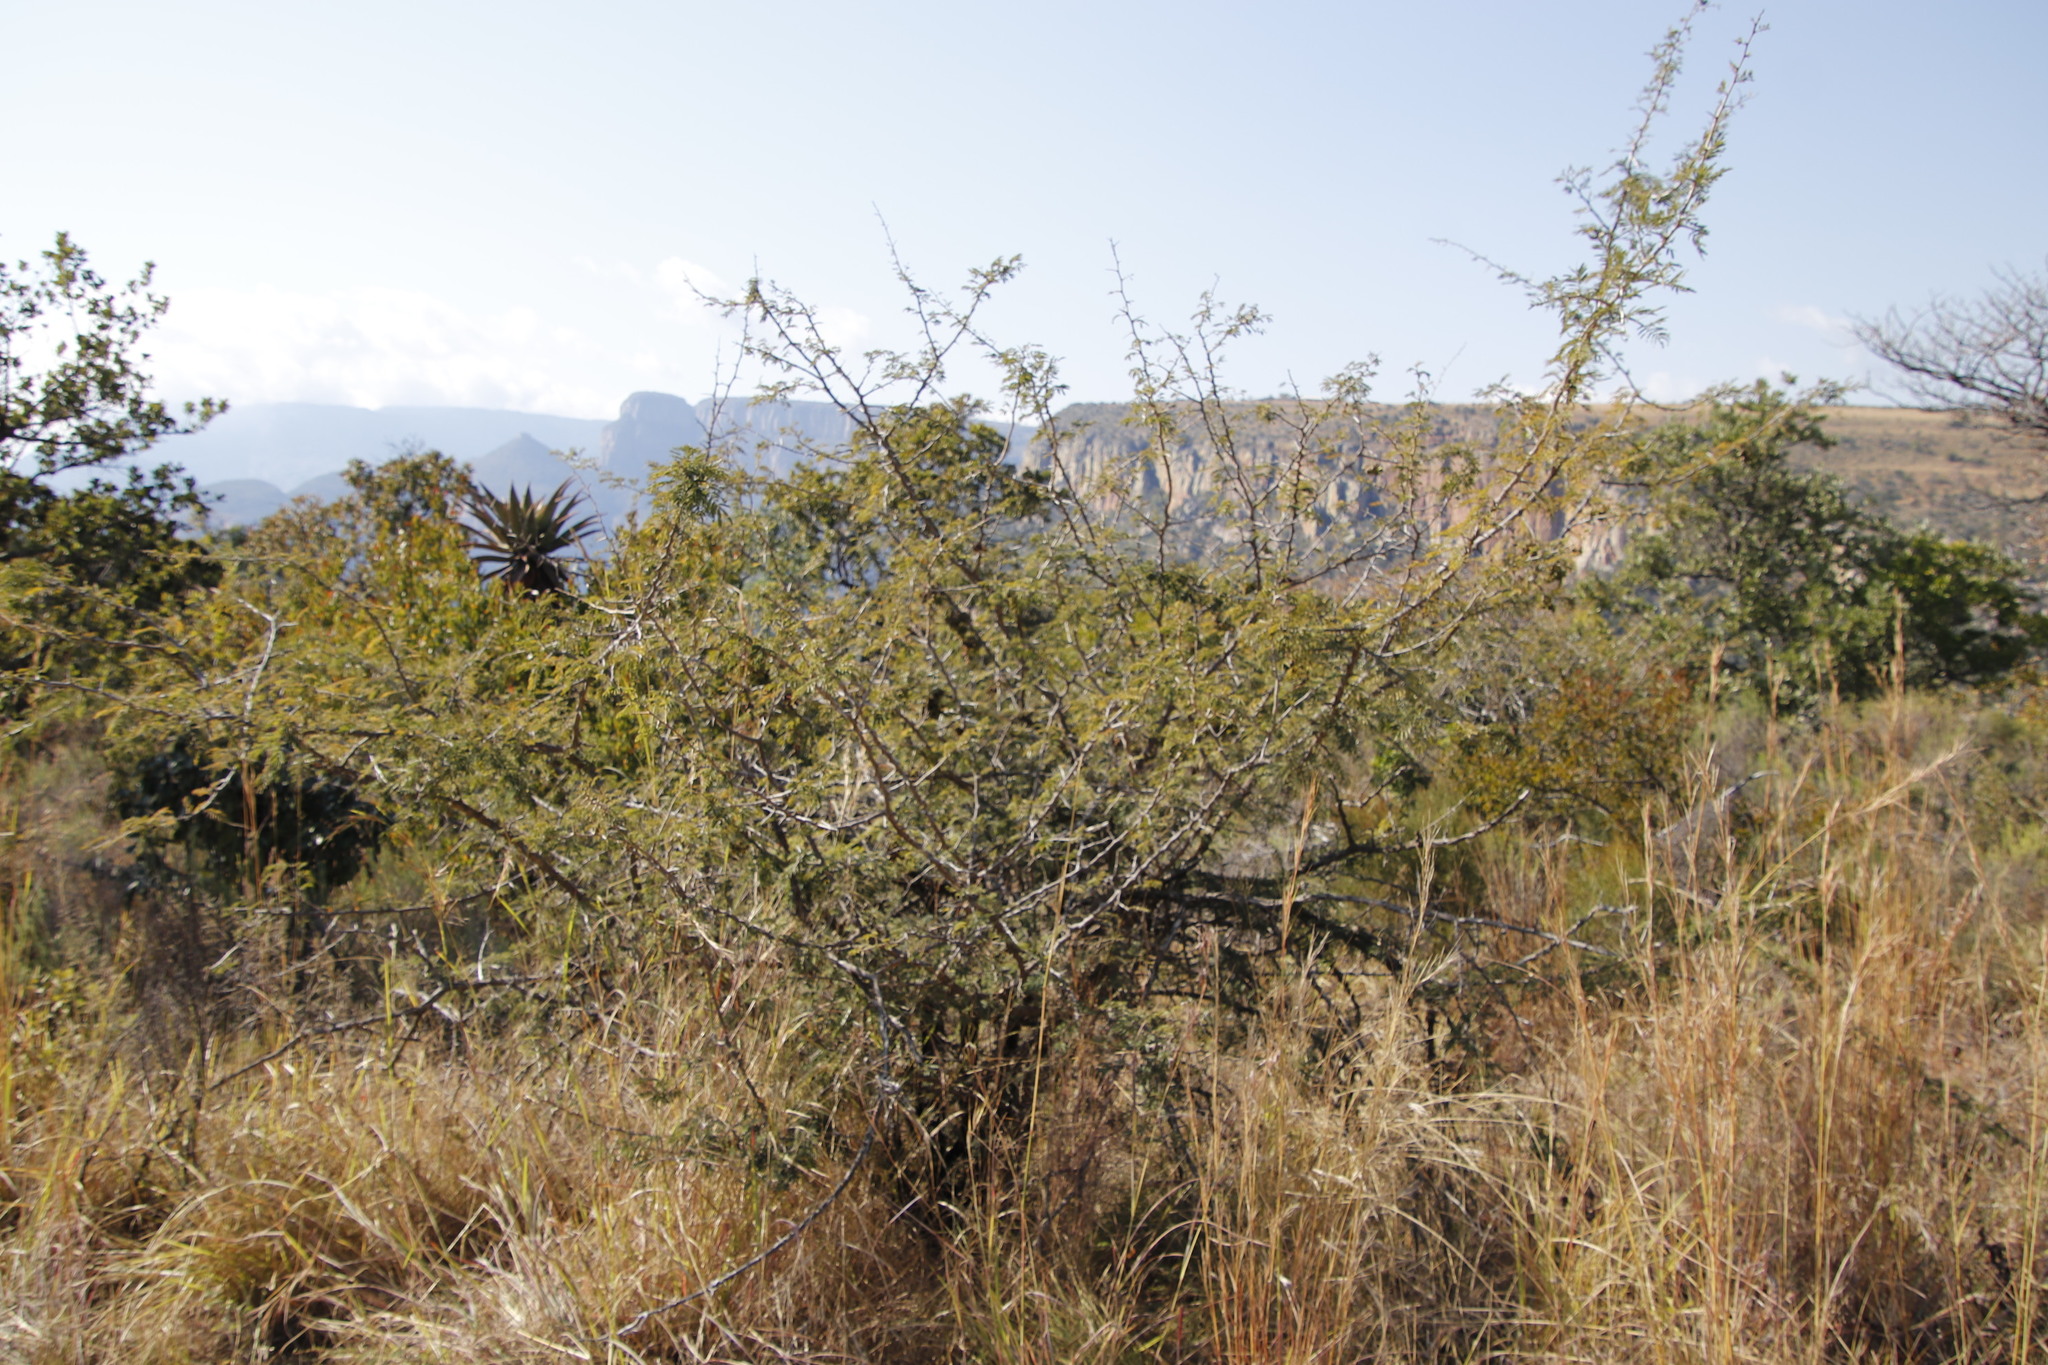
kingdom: Plantae
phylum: Tracheophyta
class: Magnoliopsida
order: Fabales
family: Fabaceae
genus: Dichrostachys
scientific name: Dichrostachys cinerea
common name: Sicklebush
